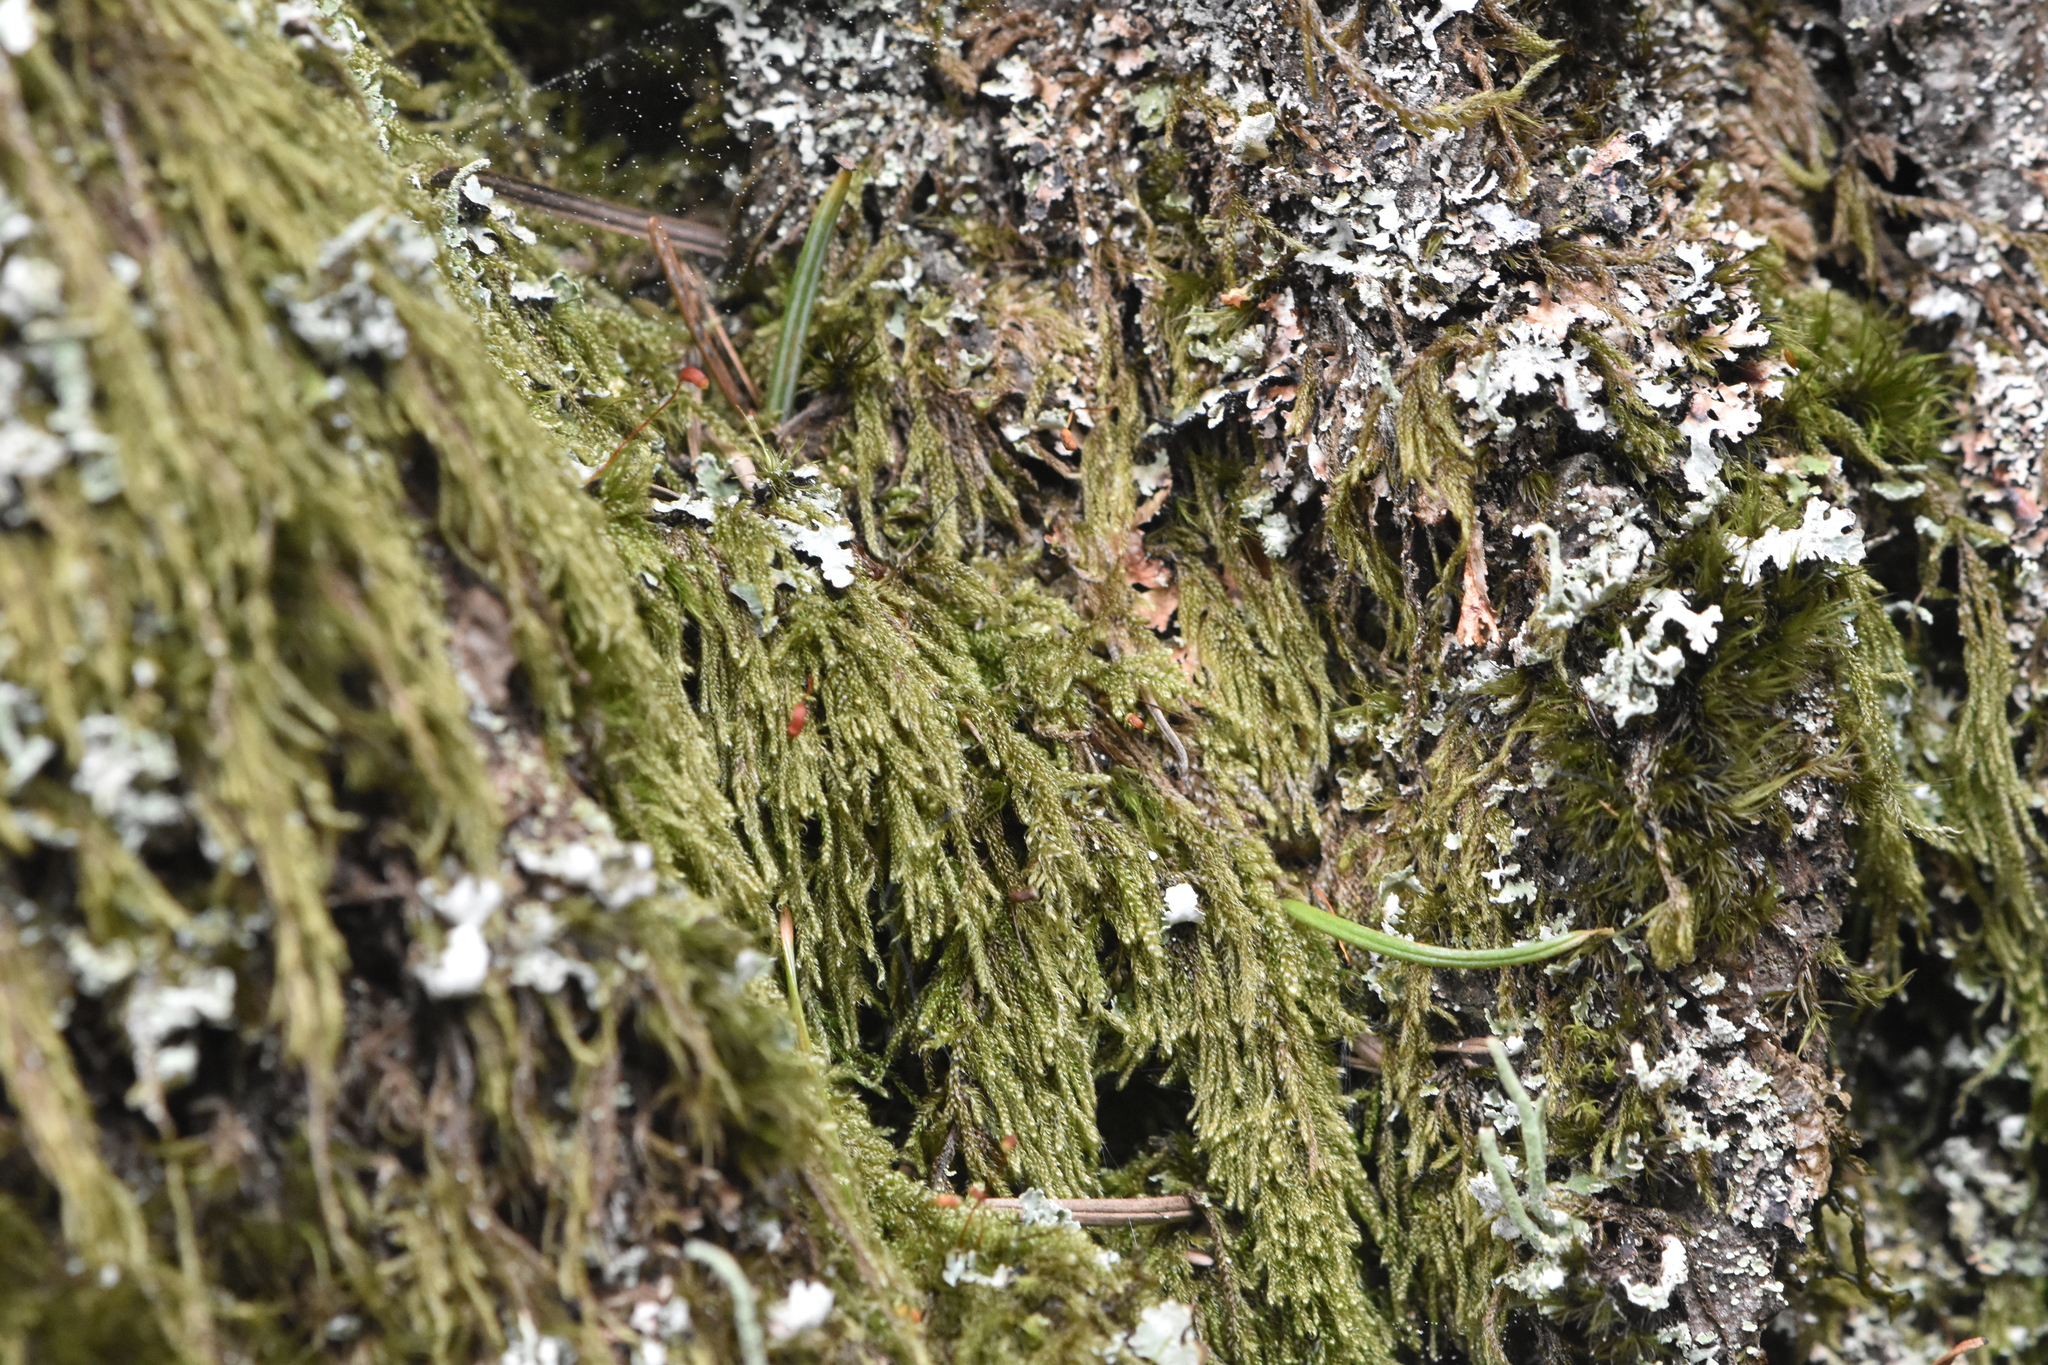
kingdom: Plantae
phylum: Bryophyta
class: Bryopsida
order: Hypnales
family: Pylaisiadelphaceae
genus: Trochophyllohypnum
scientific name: Trochophyllohypnum circinale
